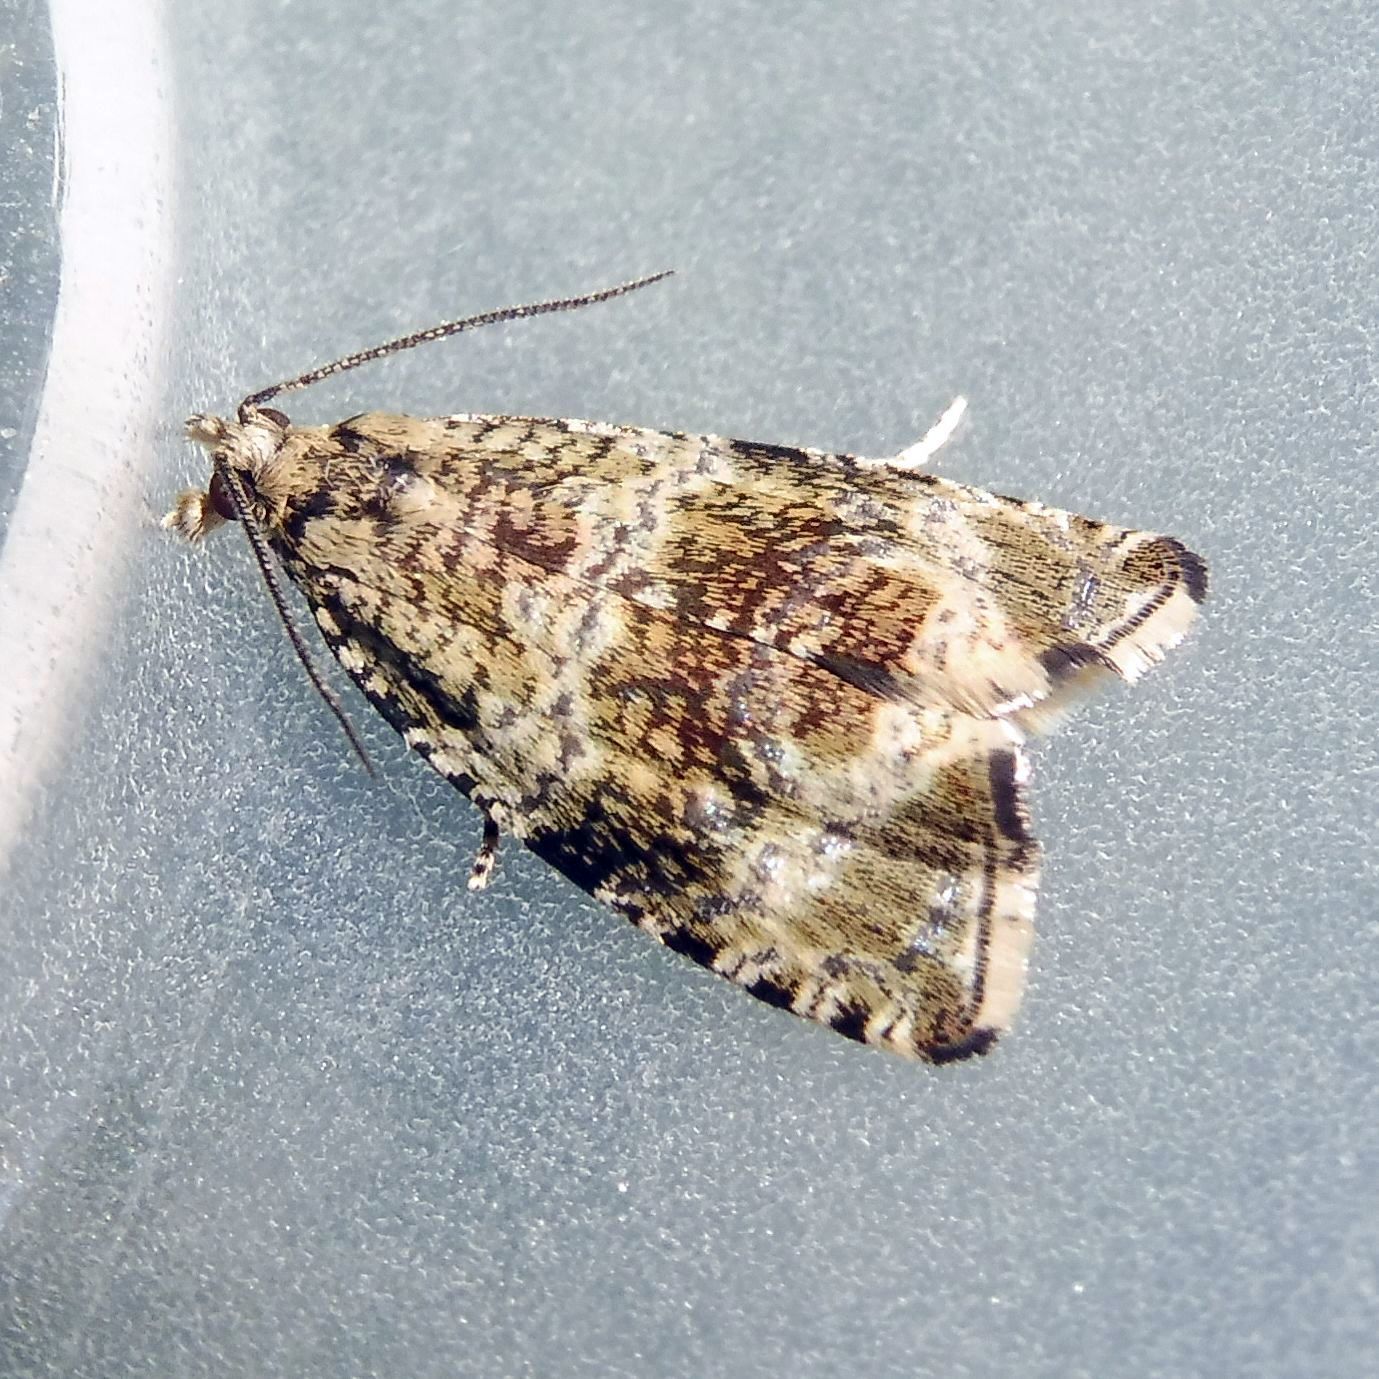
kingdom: Animalia
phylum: Arthropoda
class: Insecta
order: Lepidoptera
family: Tortricidae
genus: Syricoris
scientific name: Syricoris lacunana
